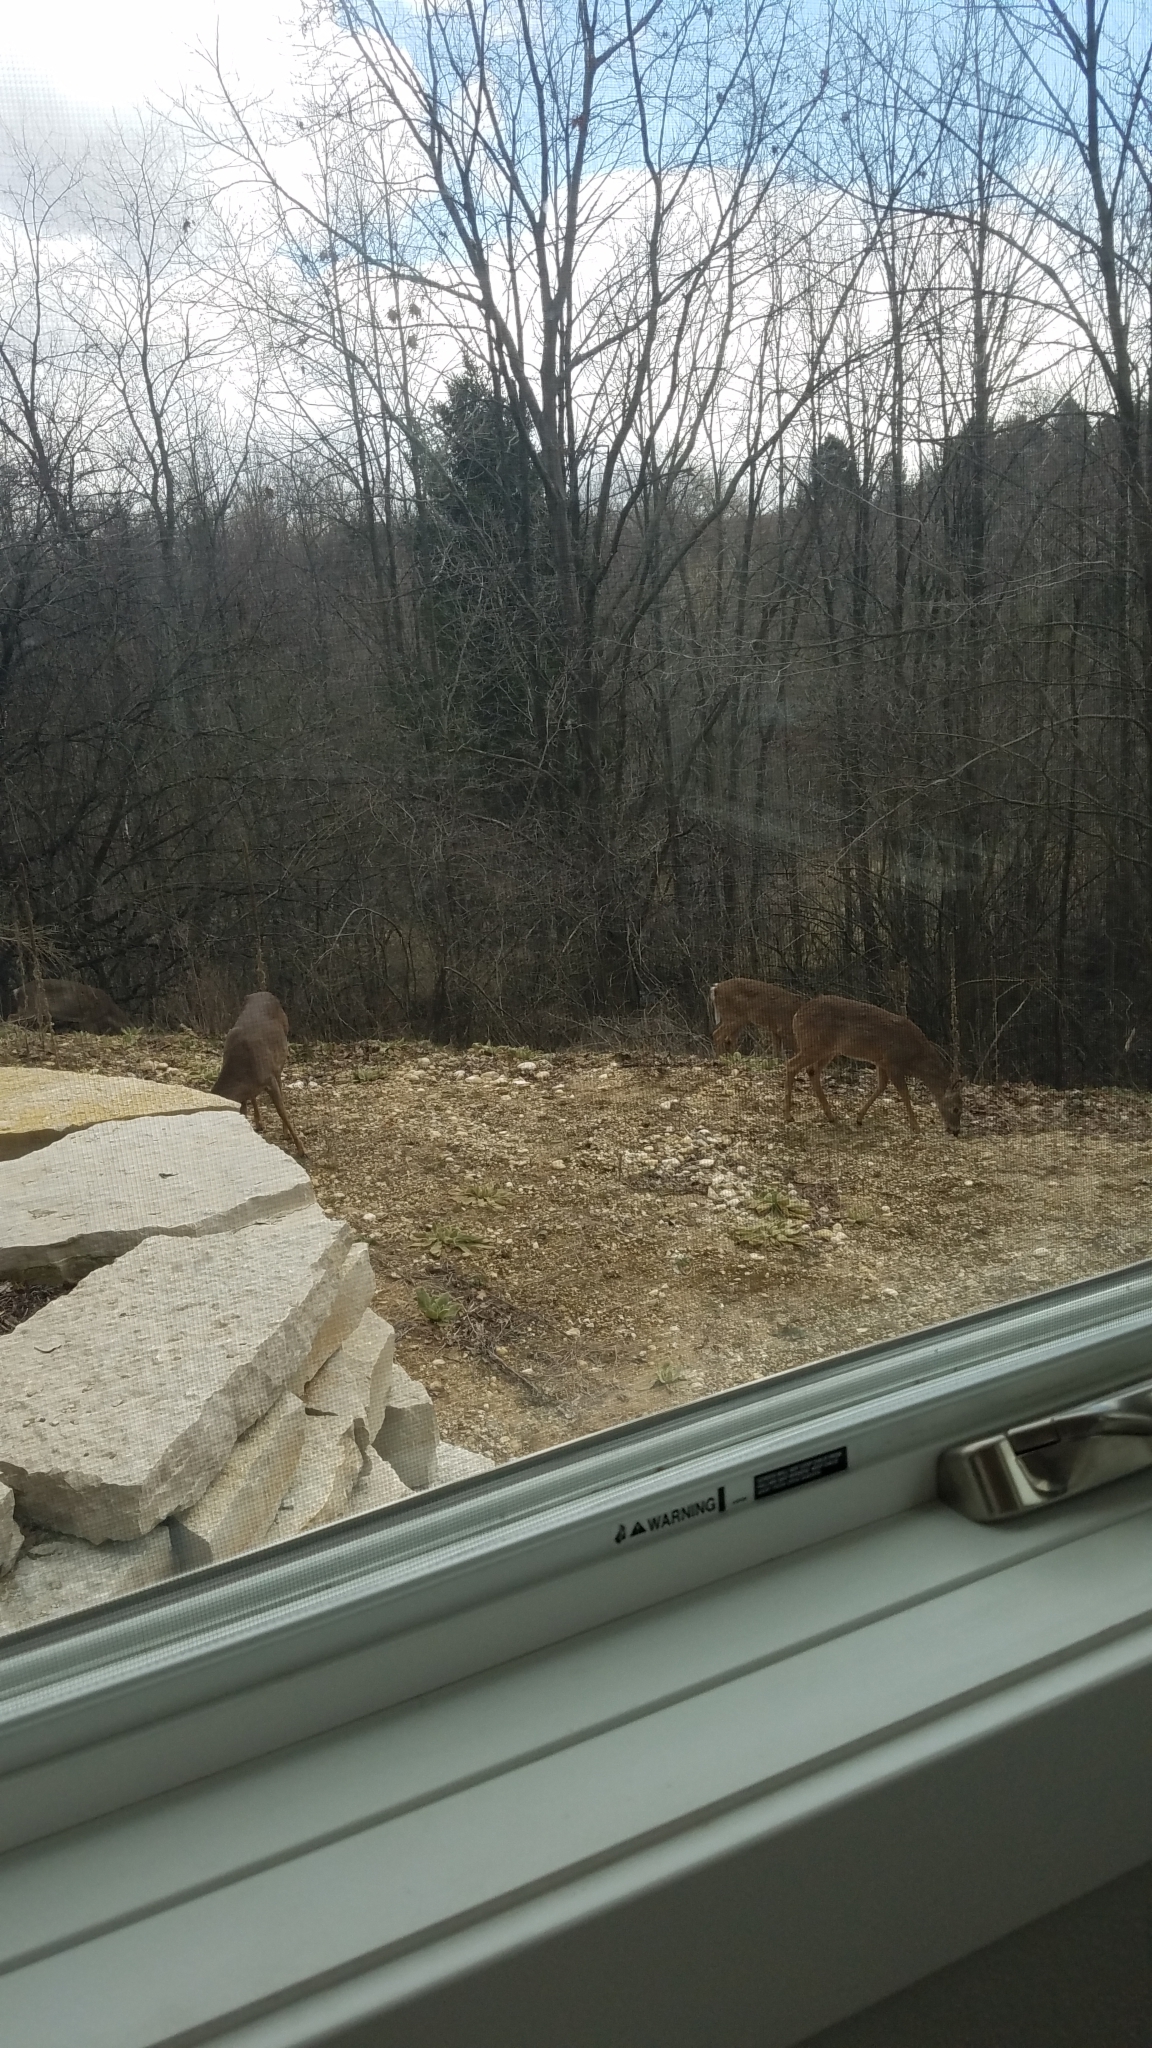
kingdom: Animalia
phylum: Chordata
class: Mammalia
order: Artiodactyla
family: Cervidae
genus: Odocoileus
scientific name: Odocoileus virginianus
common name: White-tailed deer
